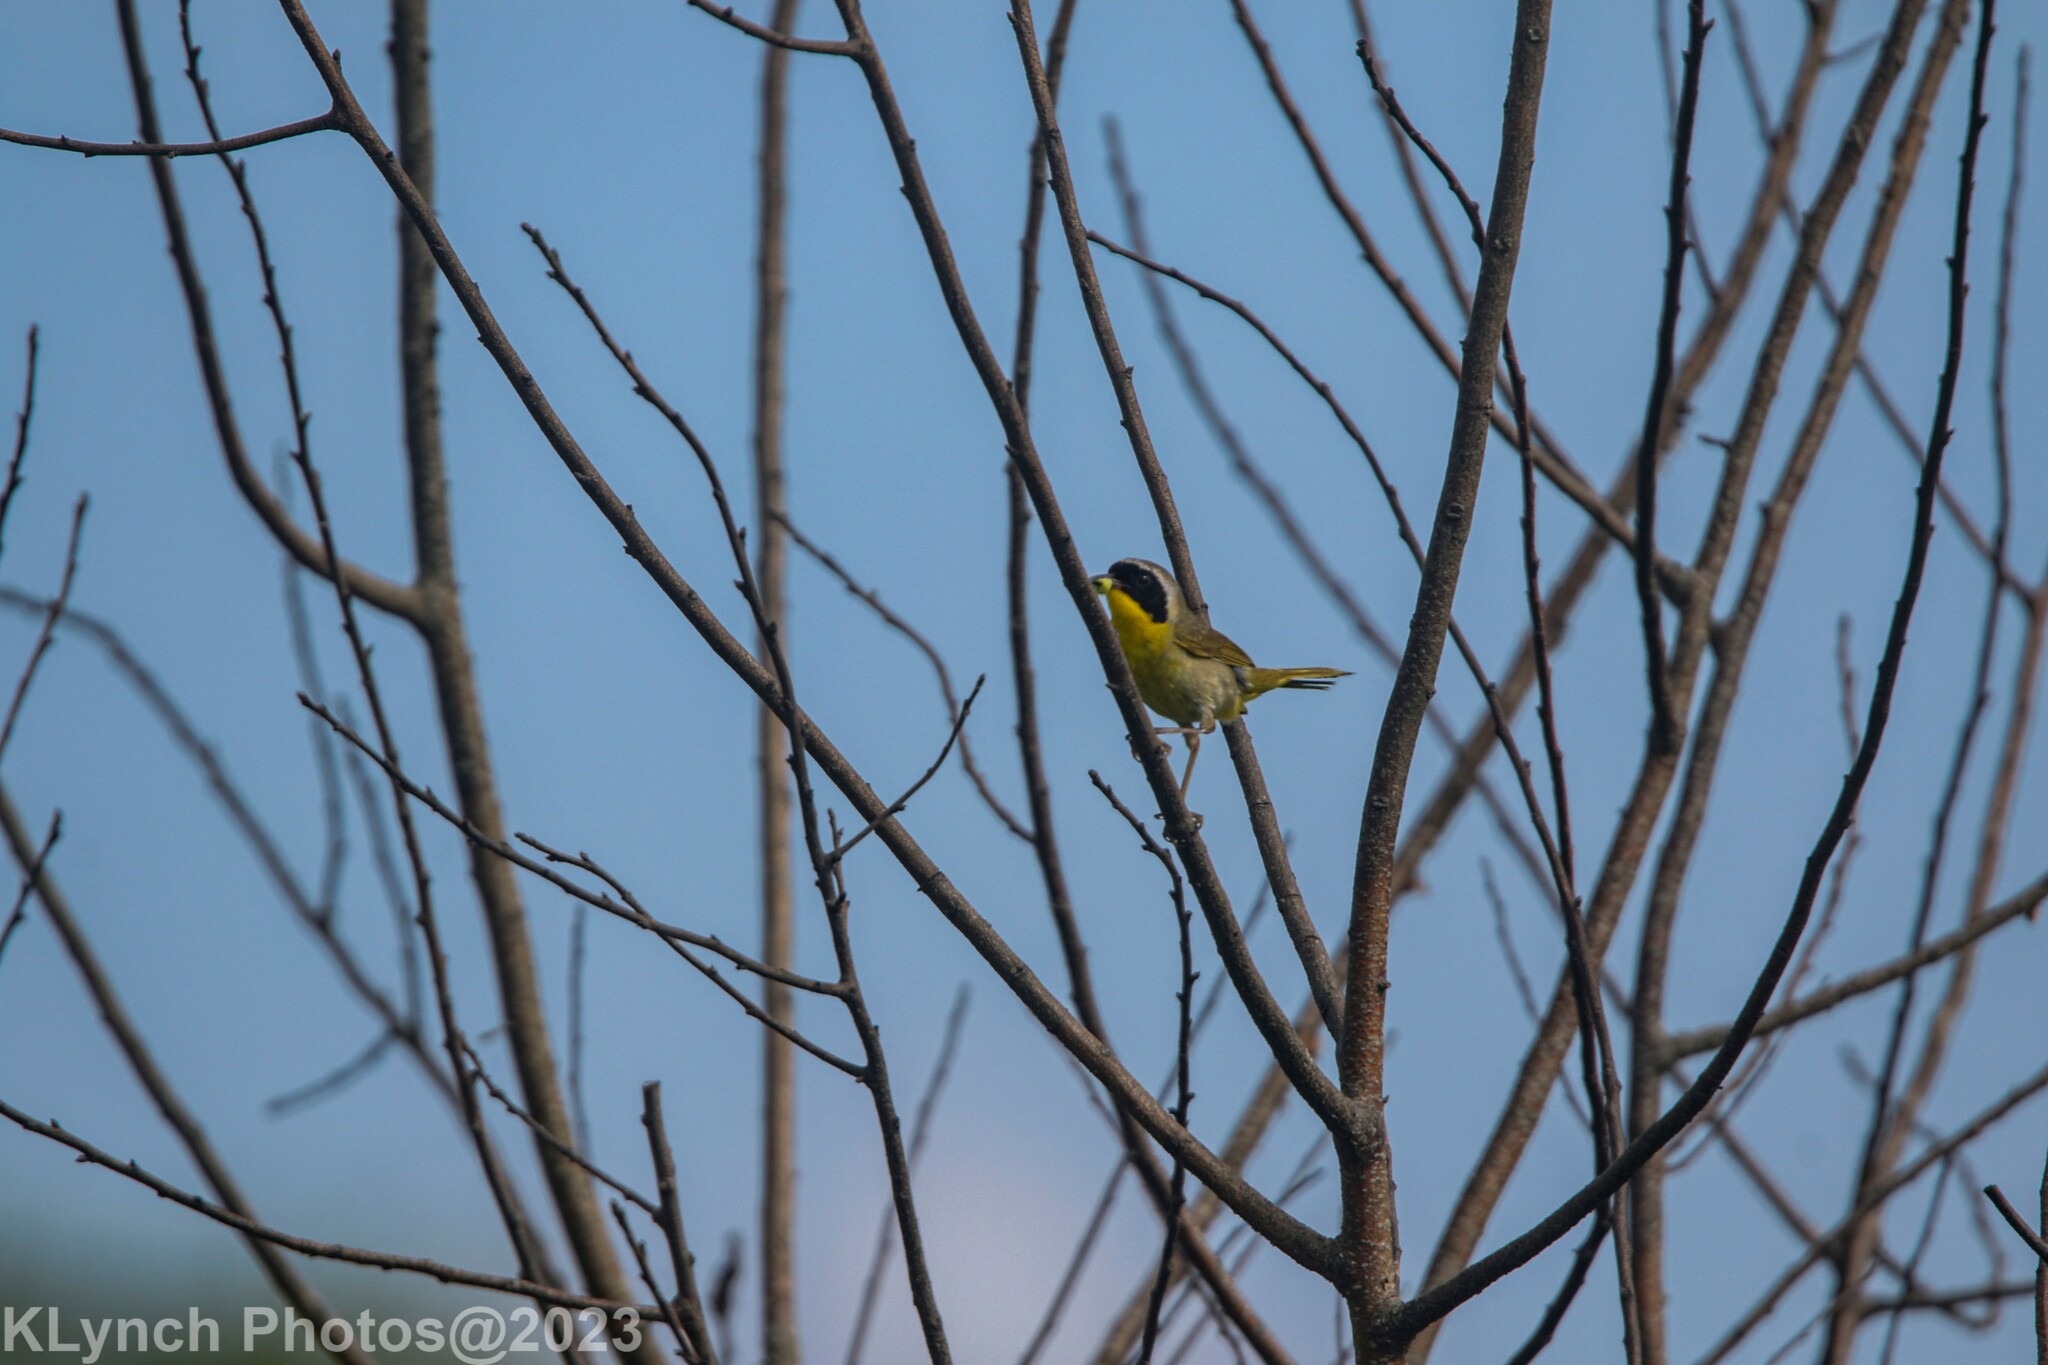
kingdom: Animalia
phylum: Chordata
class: Aves
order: Passeriformes
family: Parulidae
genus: Geothlypis
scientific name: Geothlypis trichas
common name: Common yellowthroat
